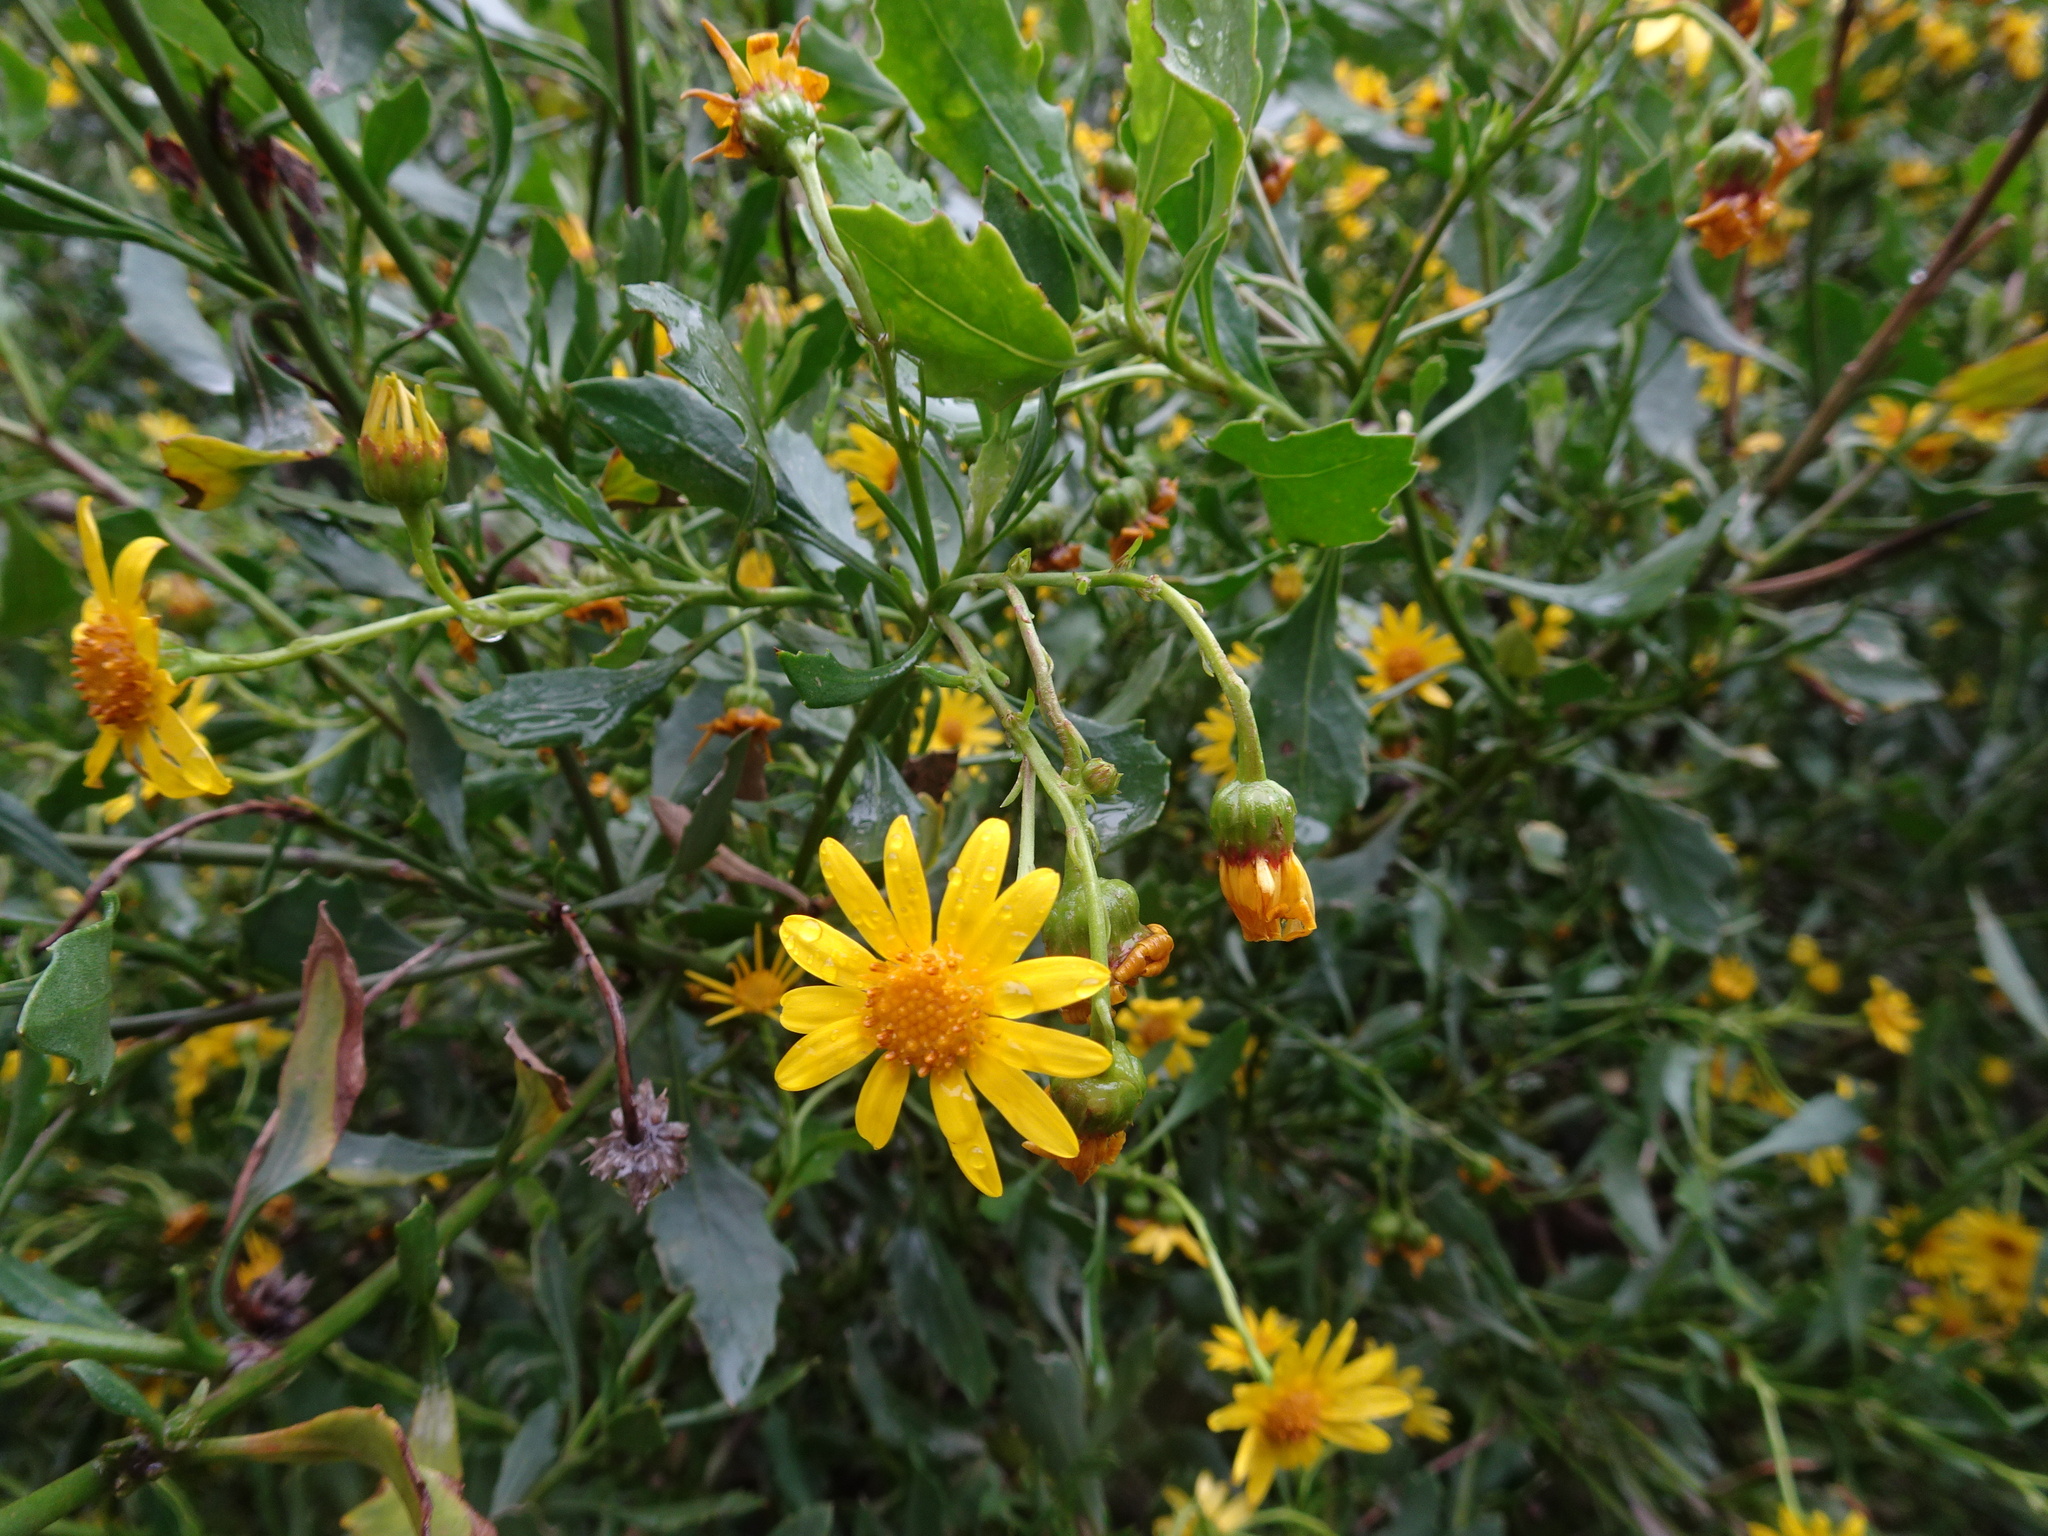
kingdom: Plantae
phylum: Tracheophyta
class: Magnoliopsida
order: Asterales
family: Asteraceae
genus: Osteospermum
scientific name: Osteospermum moniliferum
